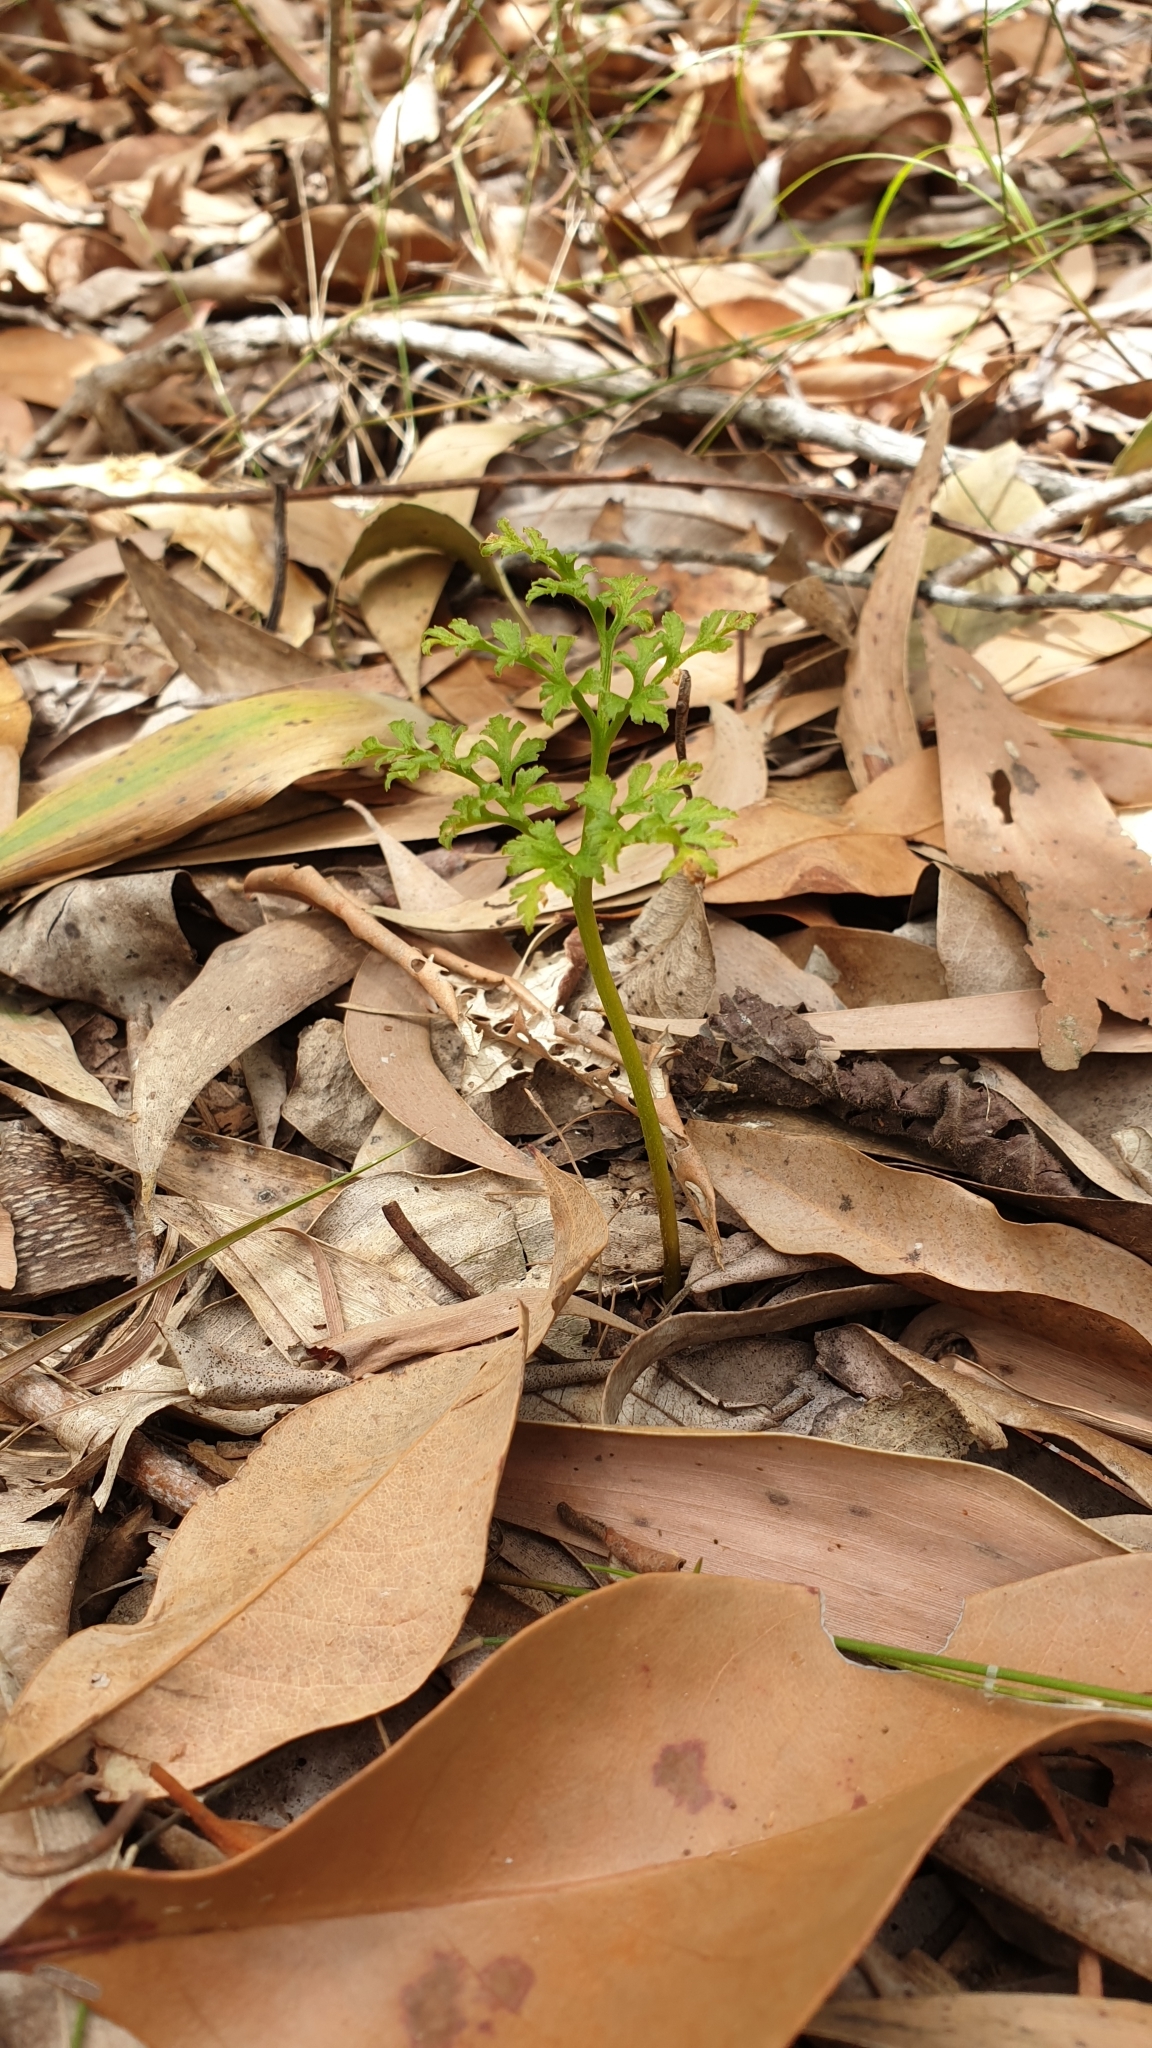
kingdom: Plantae
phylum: Tracheophyta
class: Polypodiopsida
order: Ophioglossales
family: Ophioglossaceae
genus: Sceptridium
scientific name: Sceptridium australe
